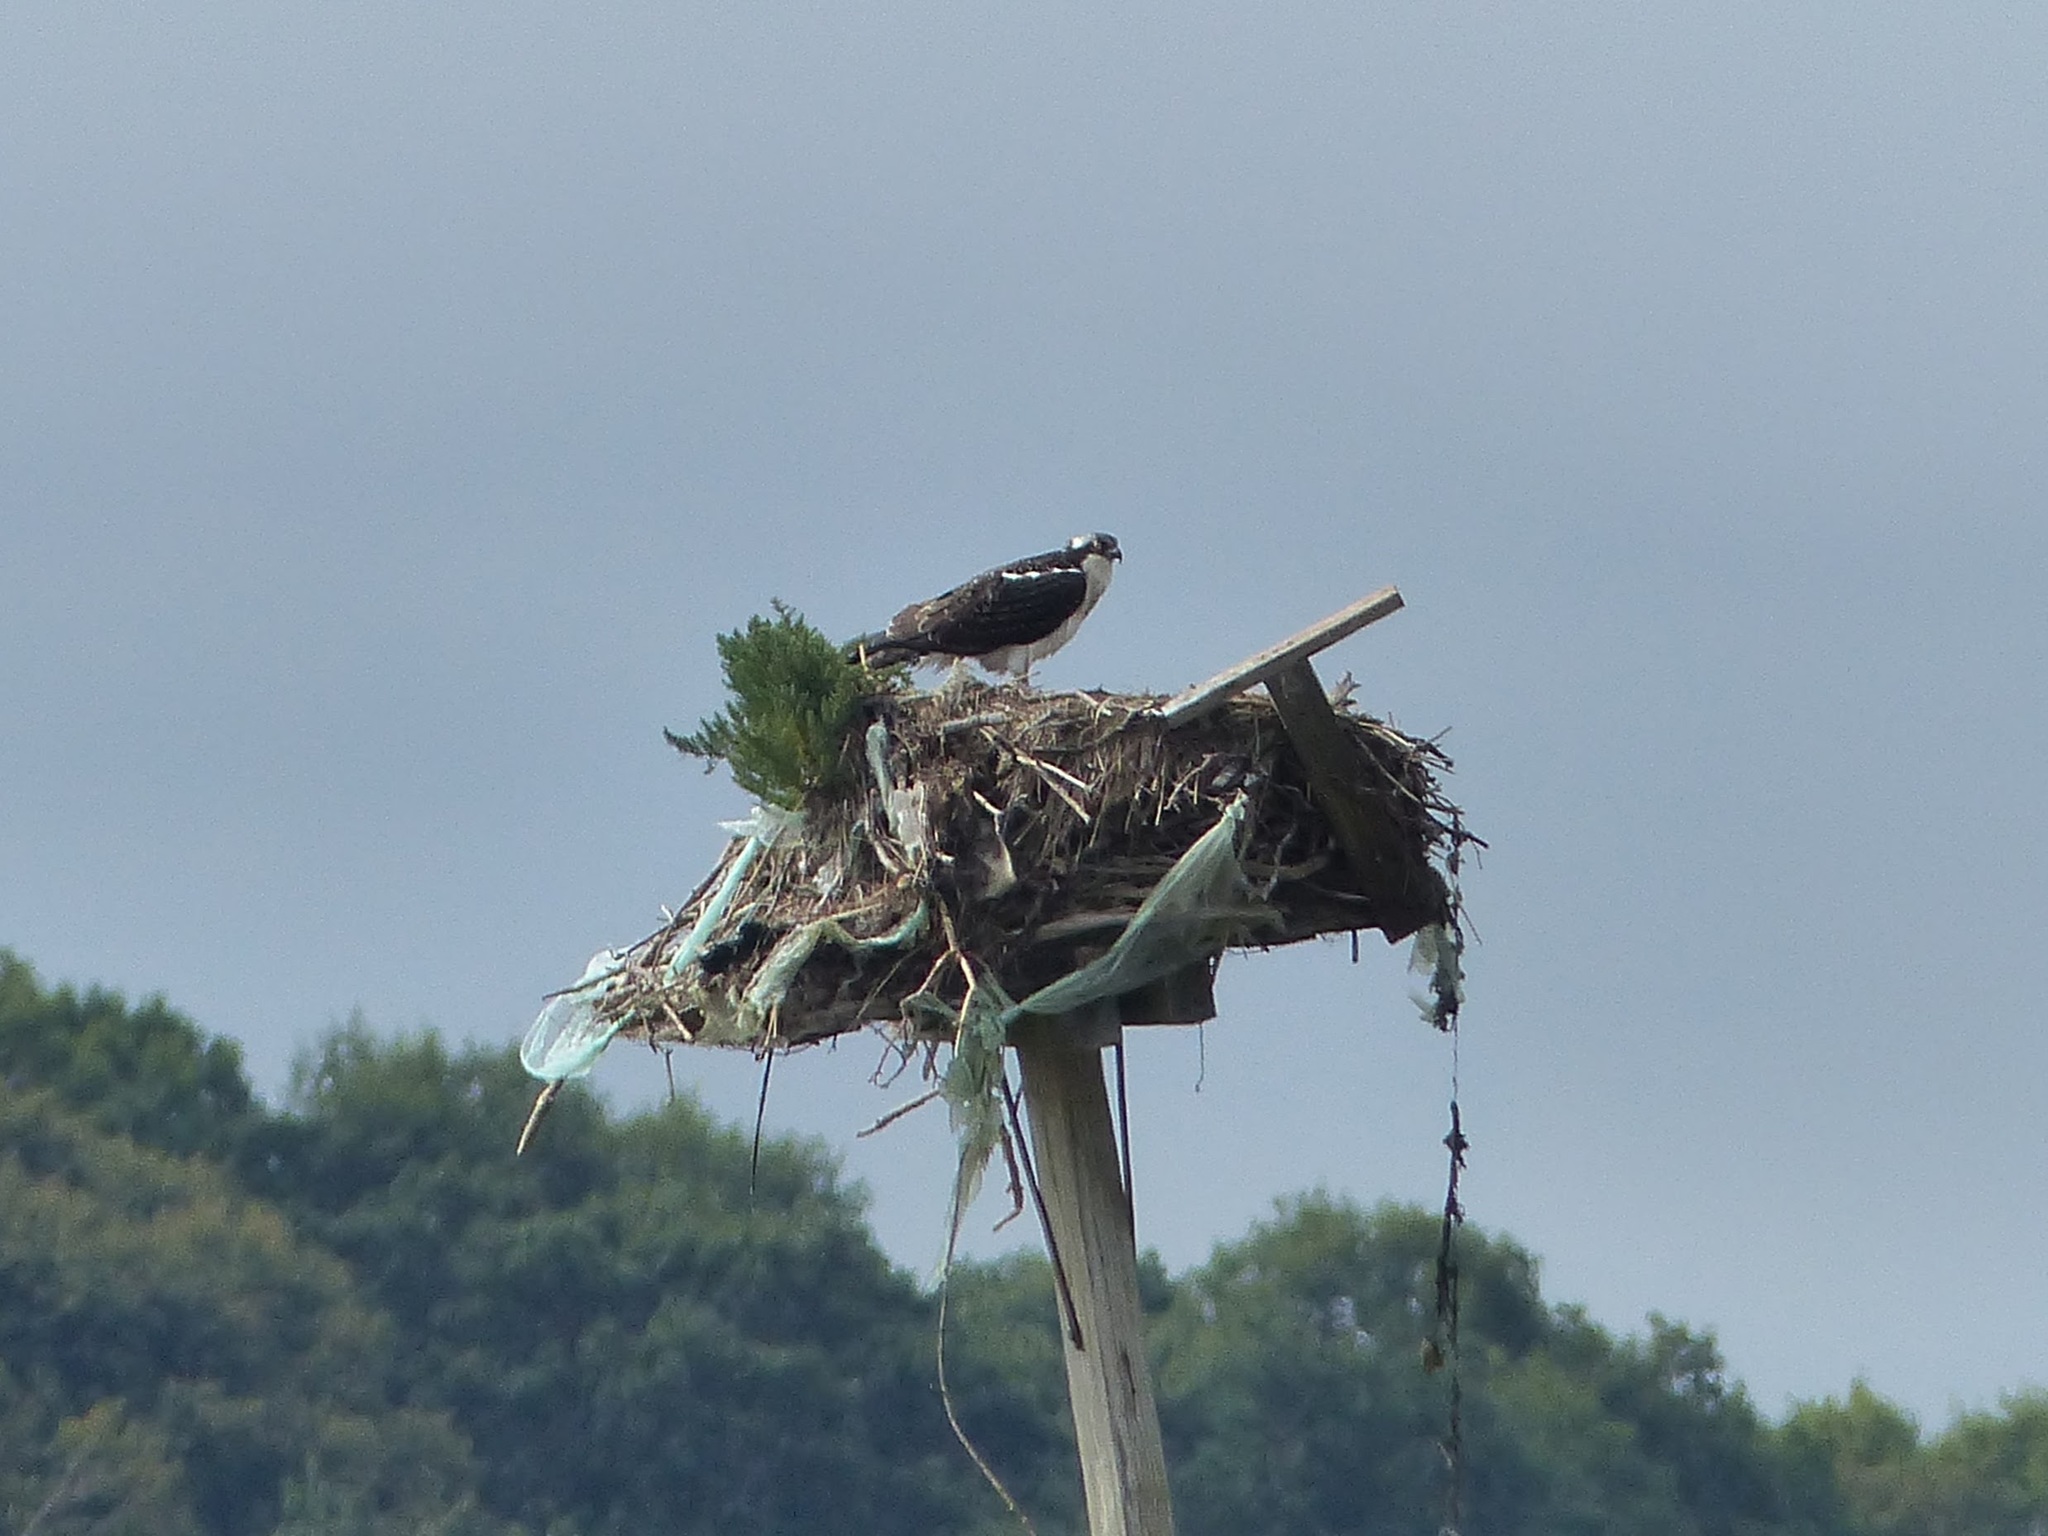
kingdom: Animalia
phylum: Chordata
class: Aves
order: Accipitriformes
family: Pandionidae
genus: Pandion
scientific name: Pandion haliaetus
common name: Osprey
